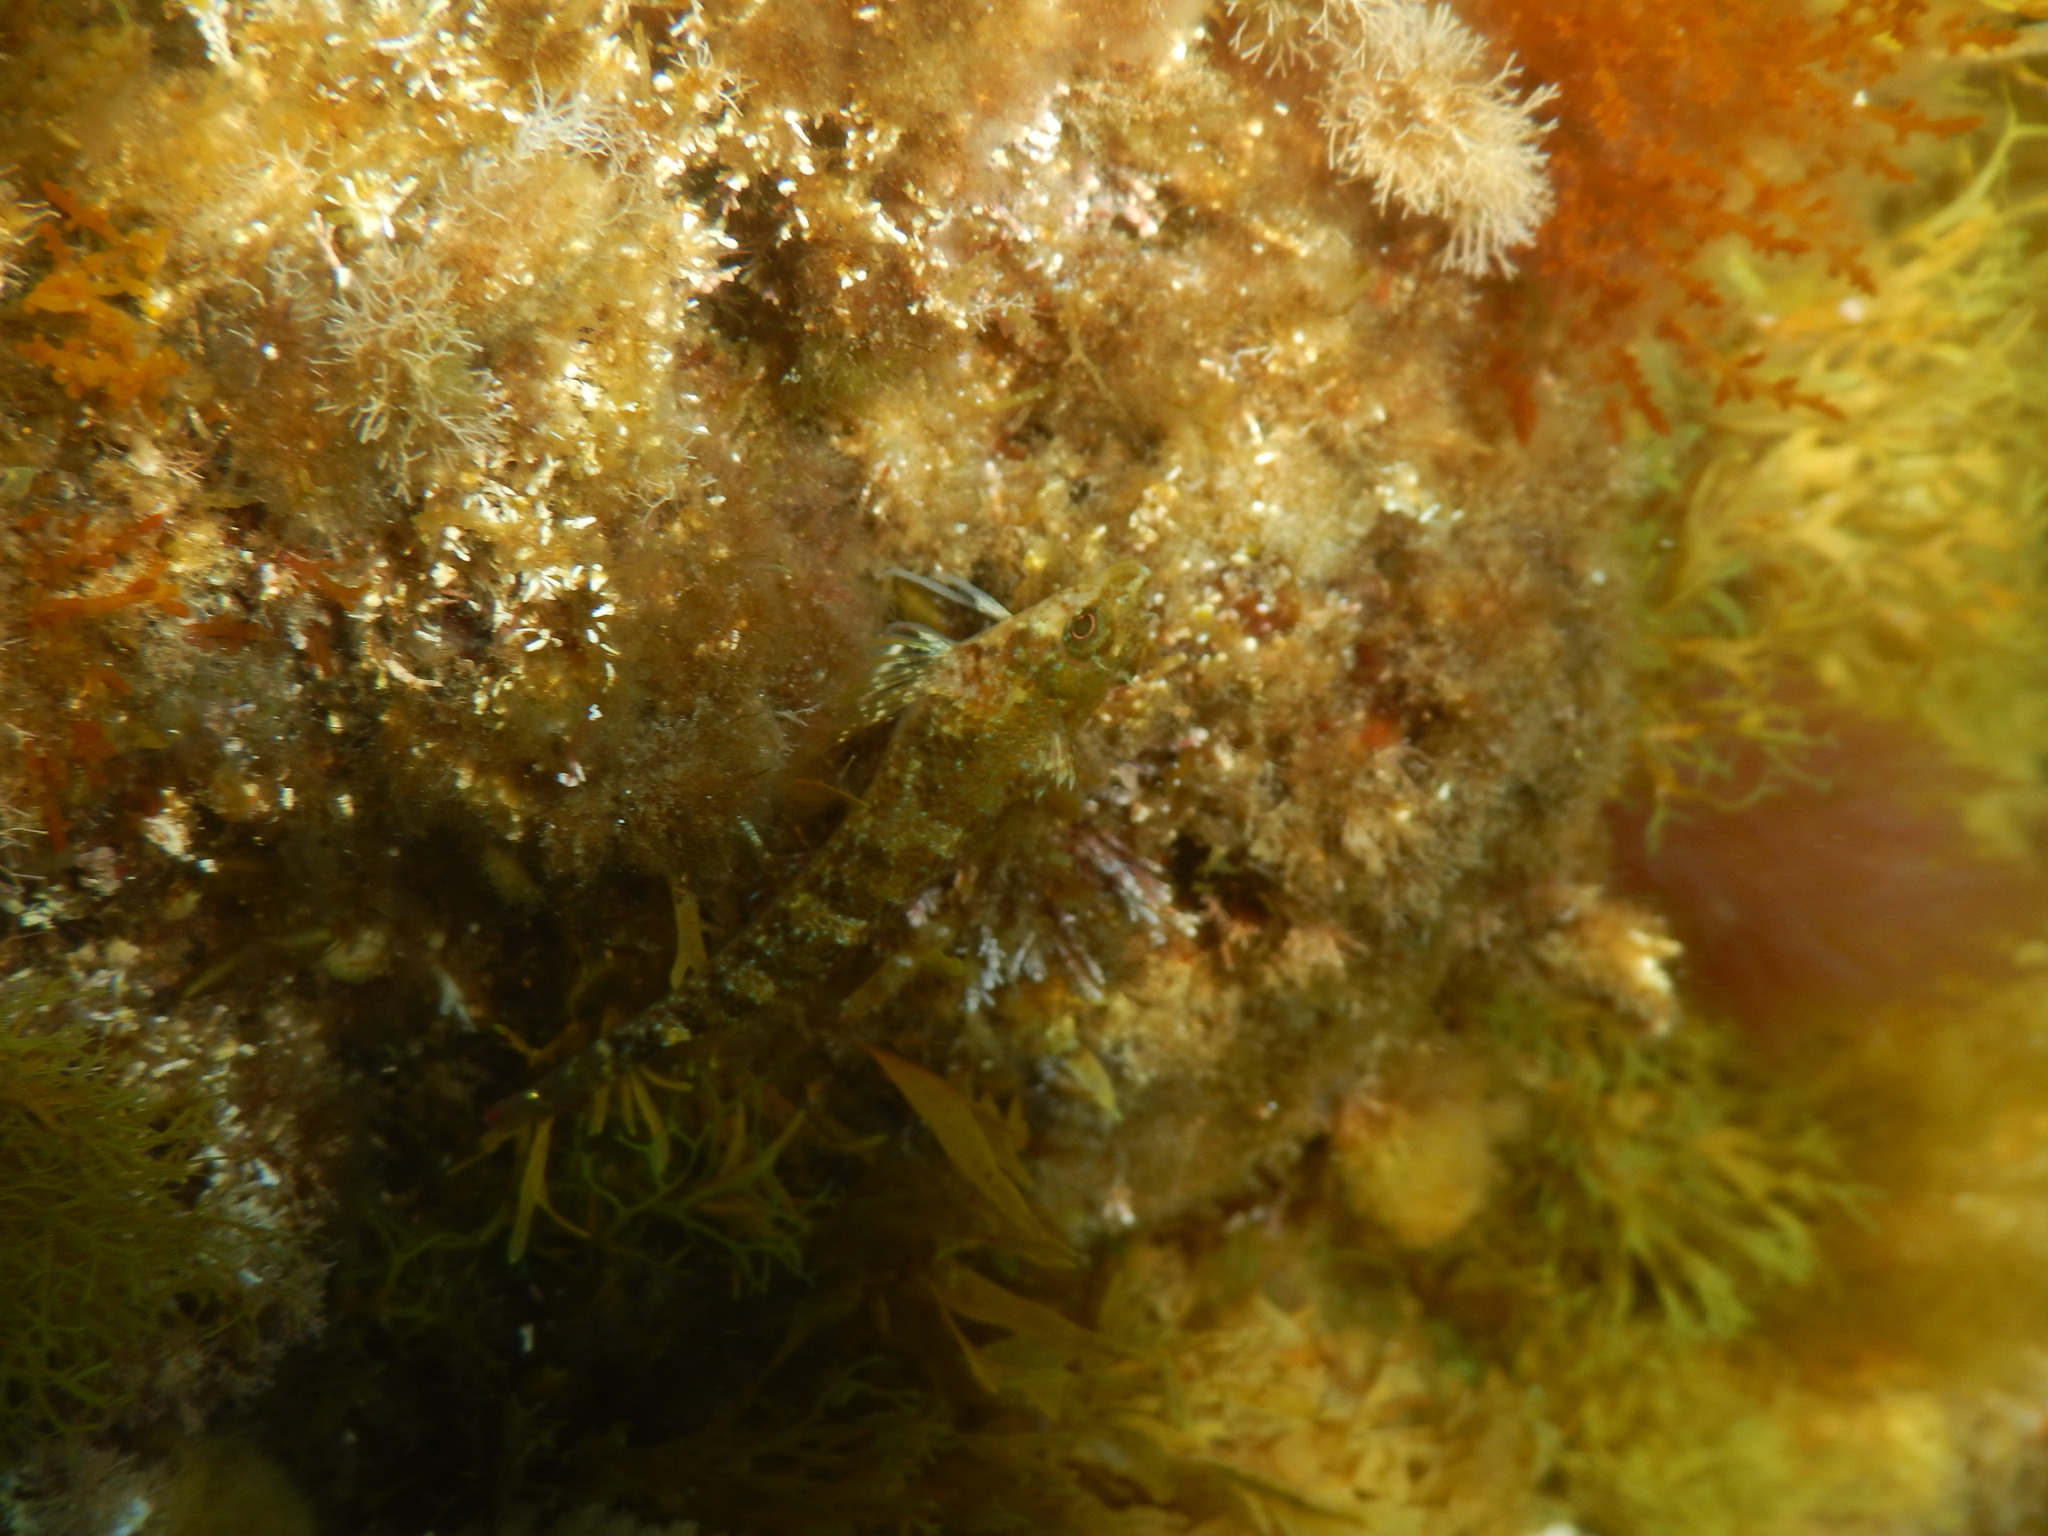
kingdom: Animalia
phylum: Chordata
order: Perciformes
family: Tripterygiidae
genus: Tripterygion
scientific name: Tripterygion tripteronotum
